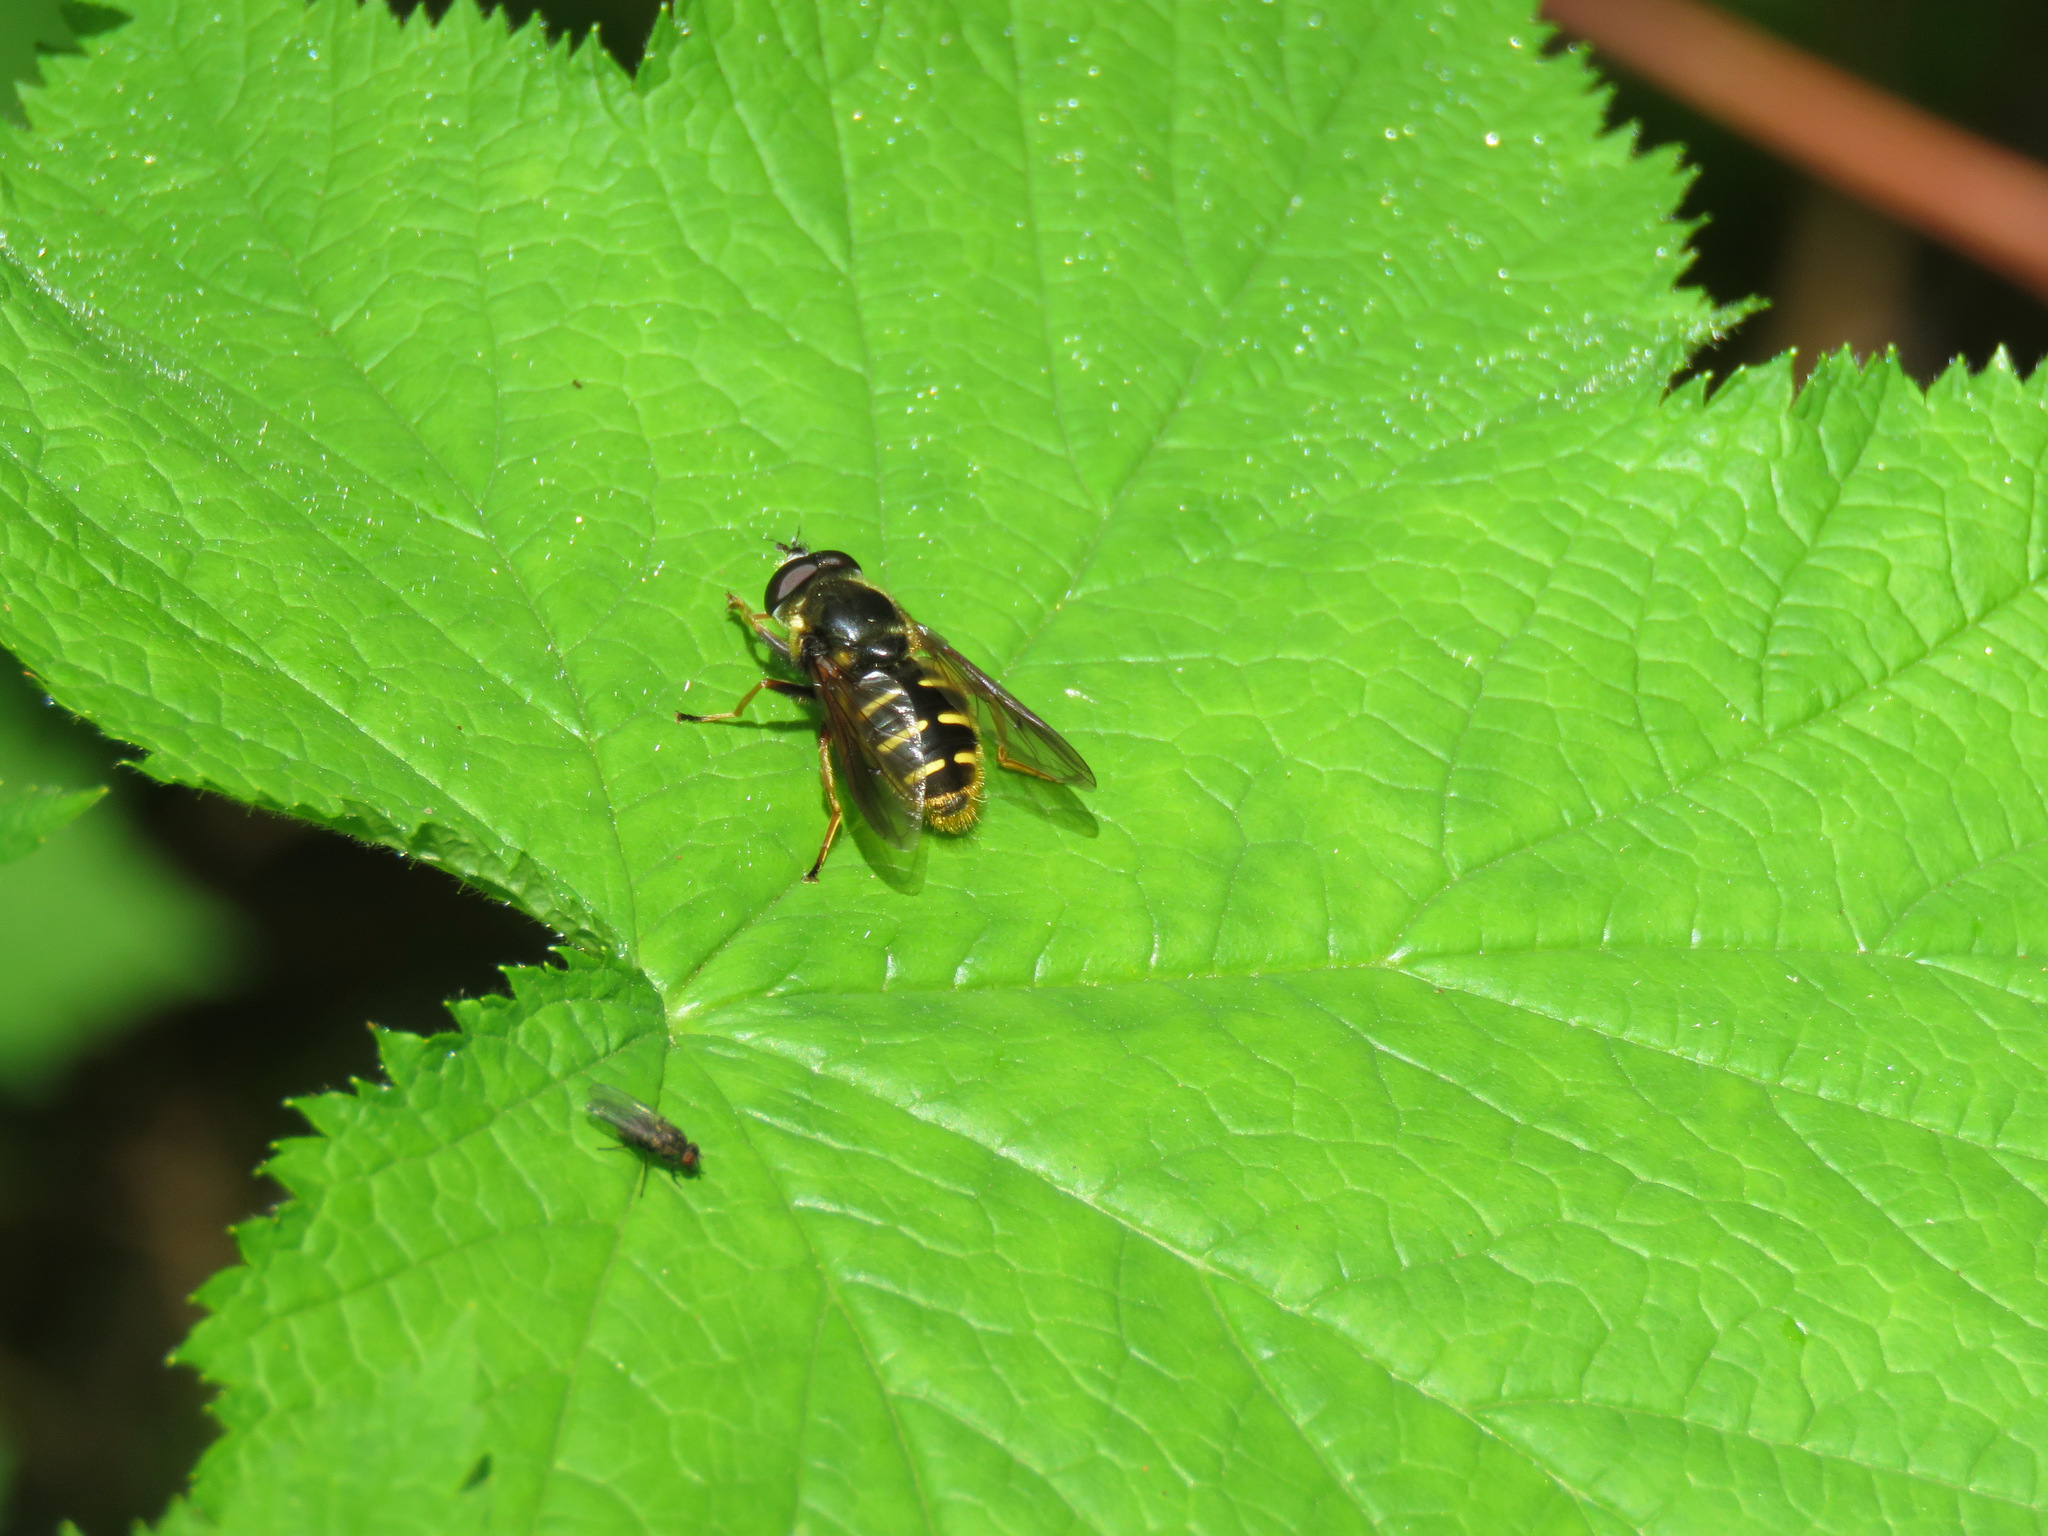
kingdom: Animalia
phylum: Arthropoda
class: Insecta
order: Diptera
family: Syrphidae
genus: Sericomyia
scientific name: Sericomyia chalcopyga
